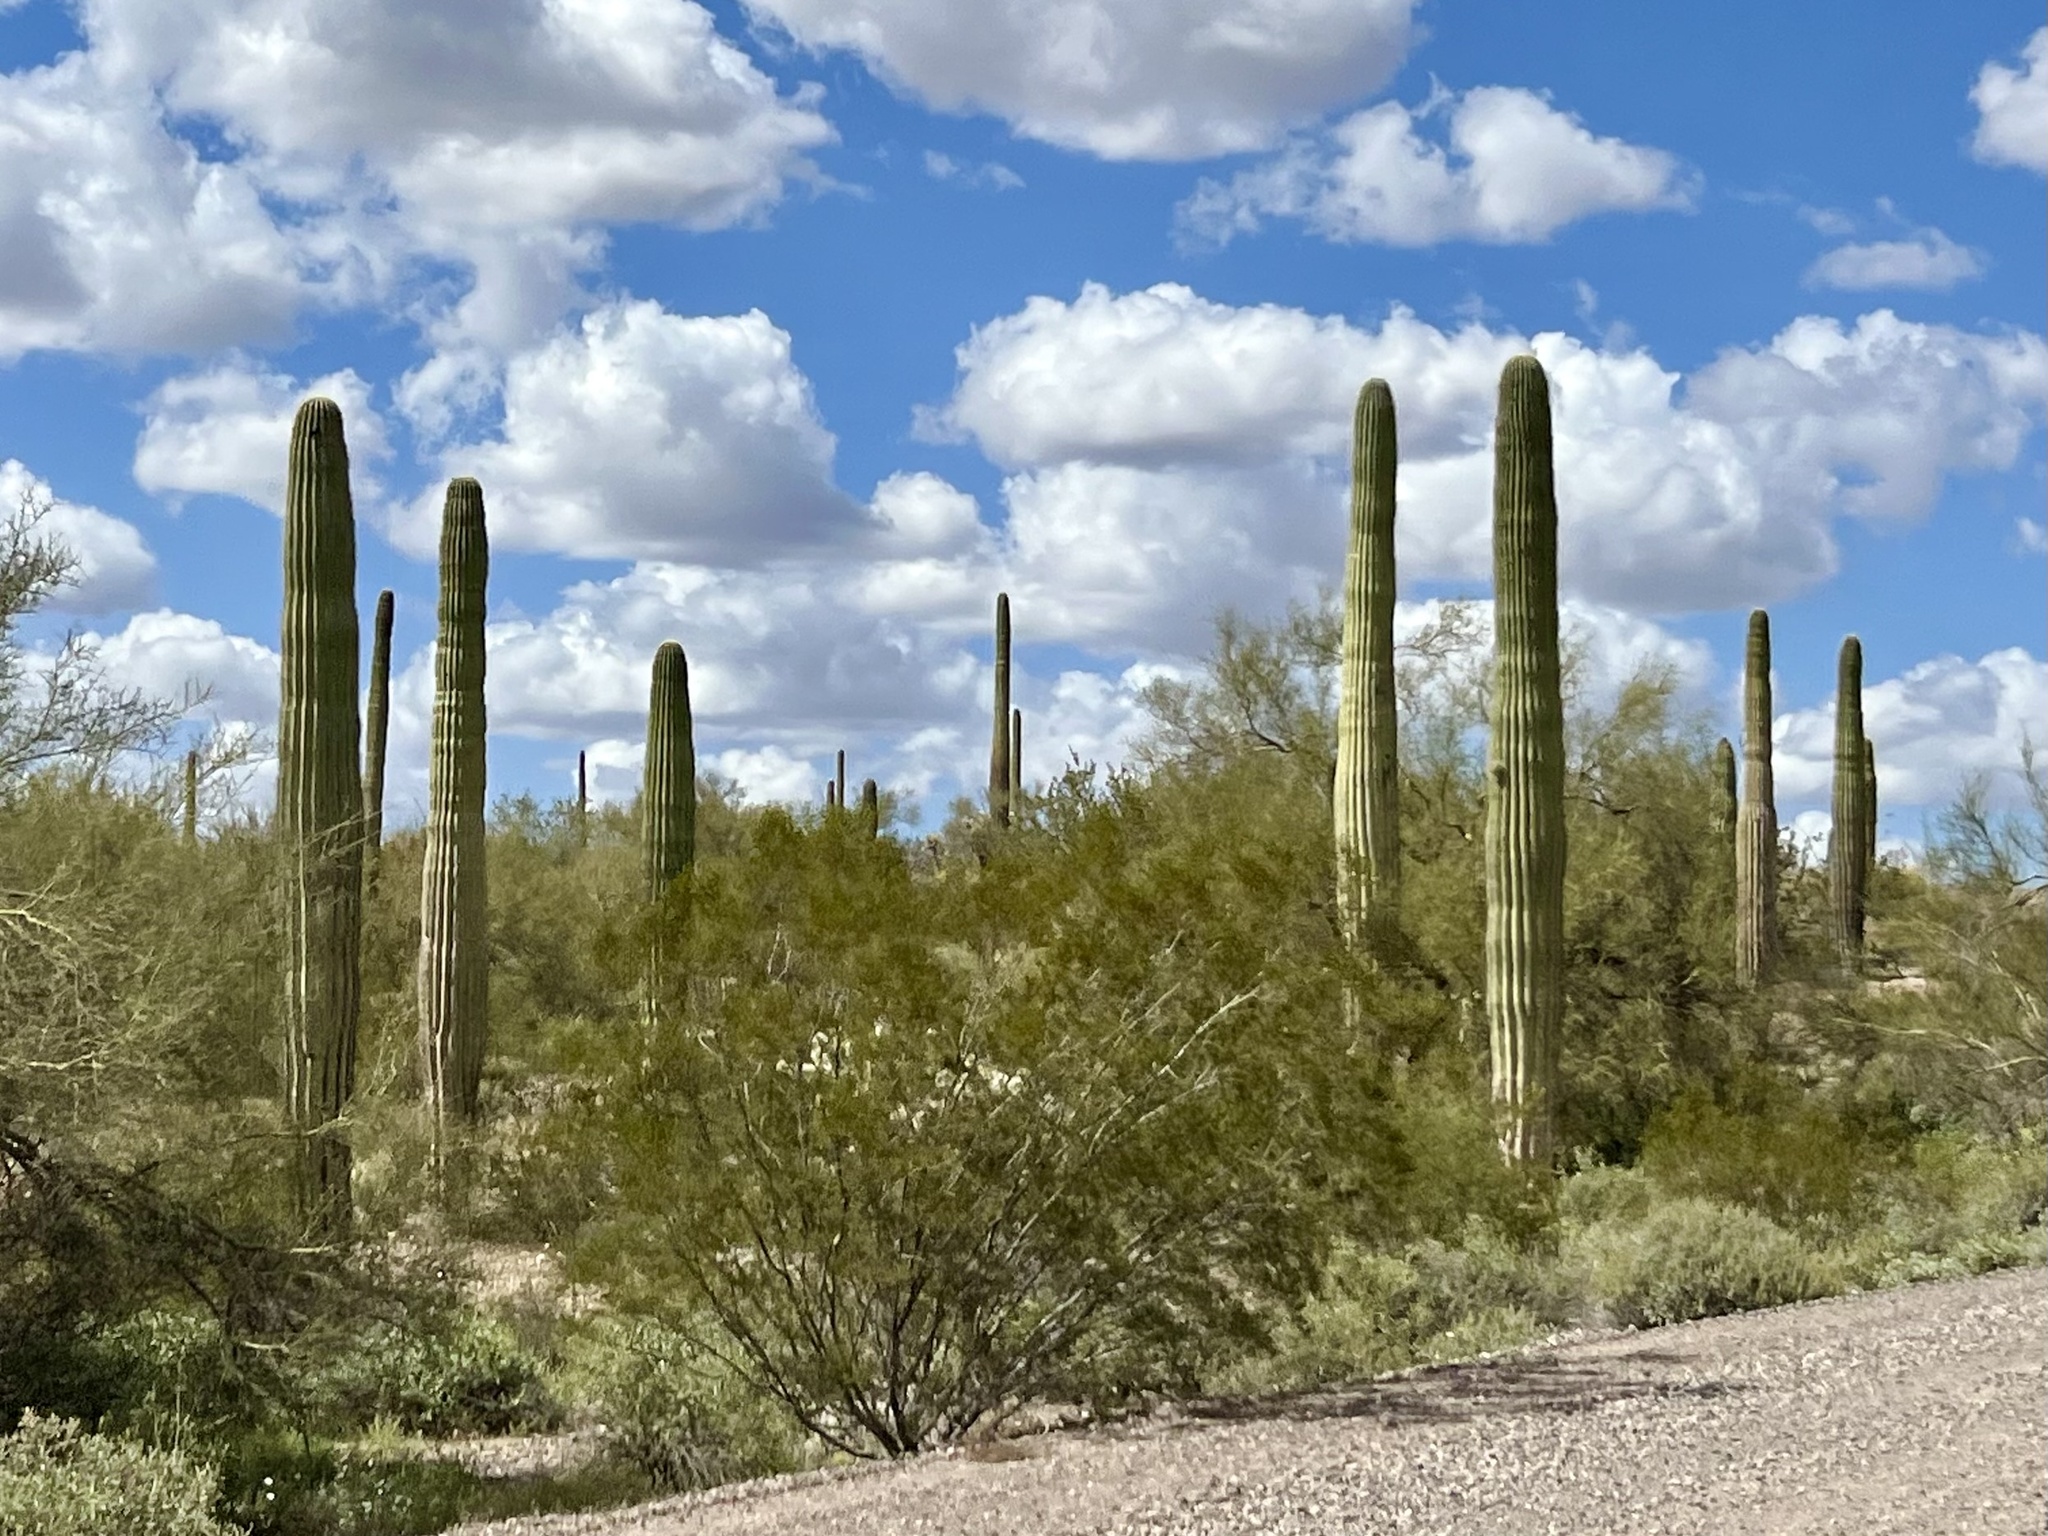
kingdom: Plantae
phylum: Tracheophyta
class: Magnoliopsida
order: Caryophyllales
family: Cactaceae
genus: Carnegiea
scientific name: Carnegiea gigantea
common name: Saguaro
